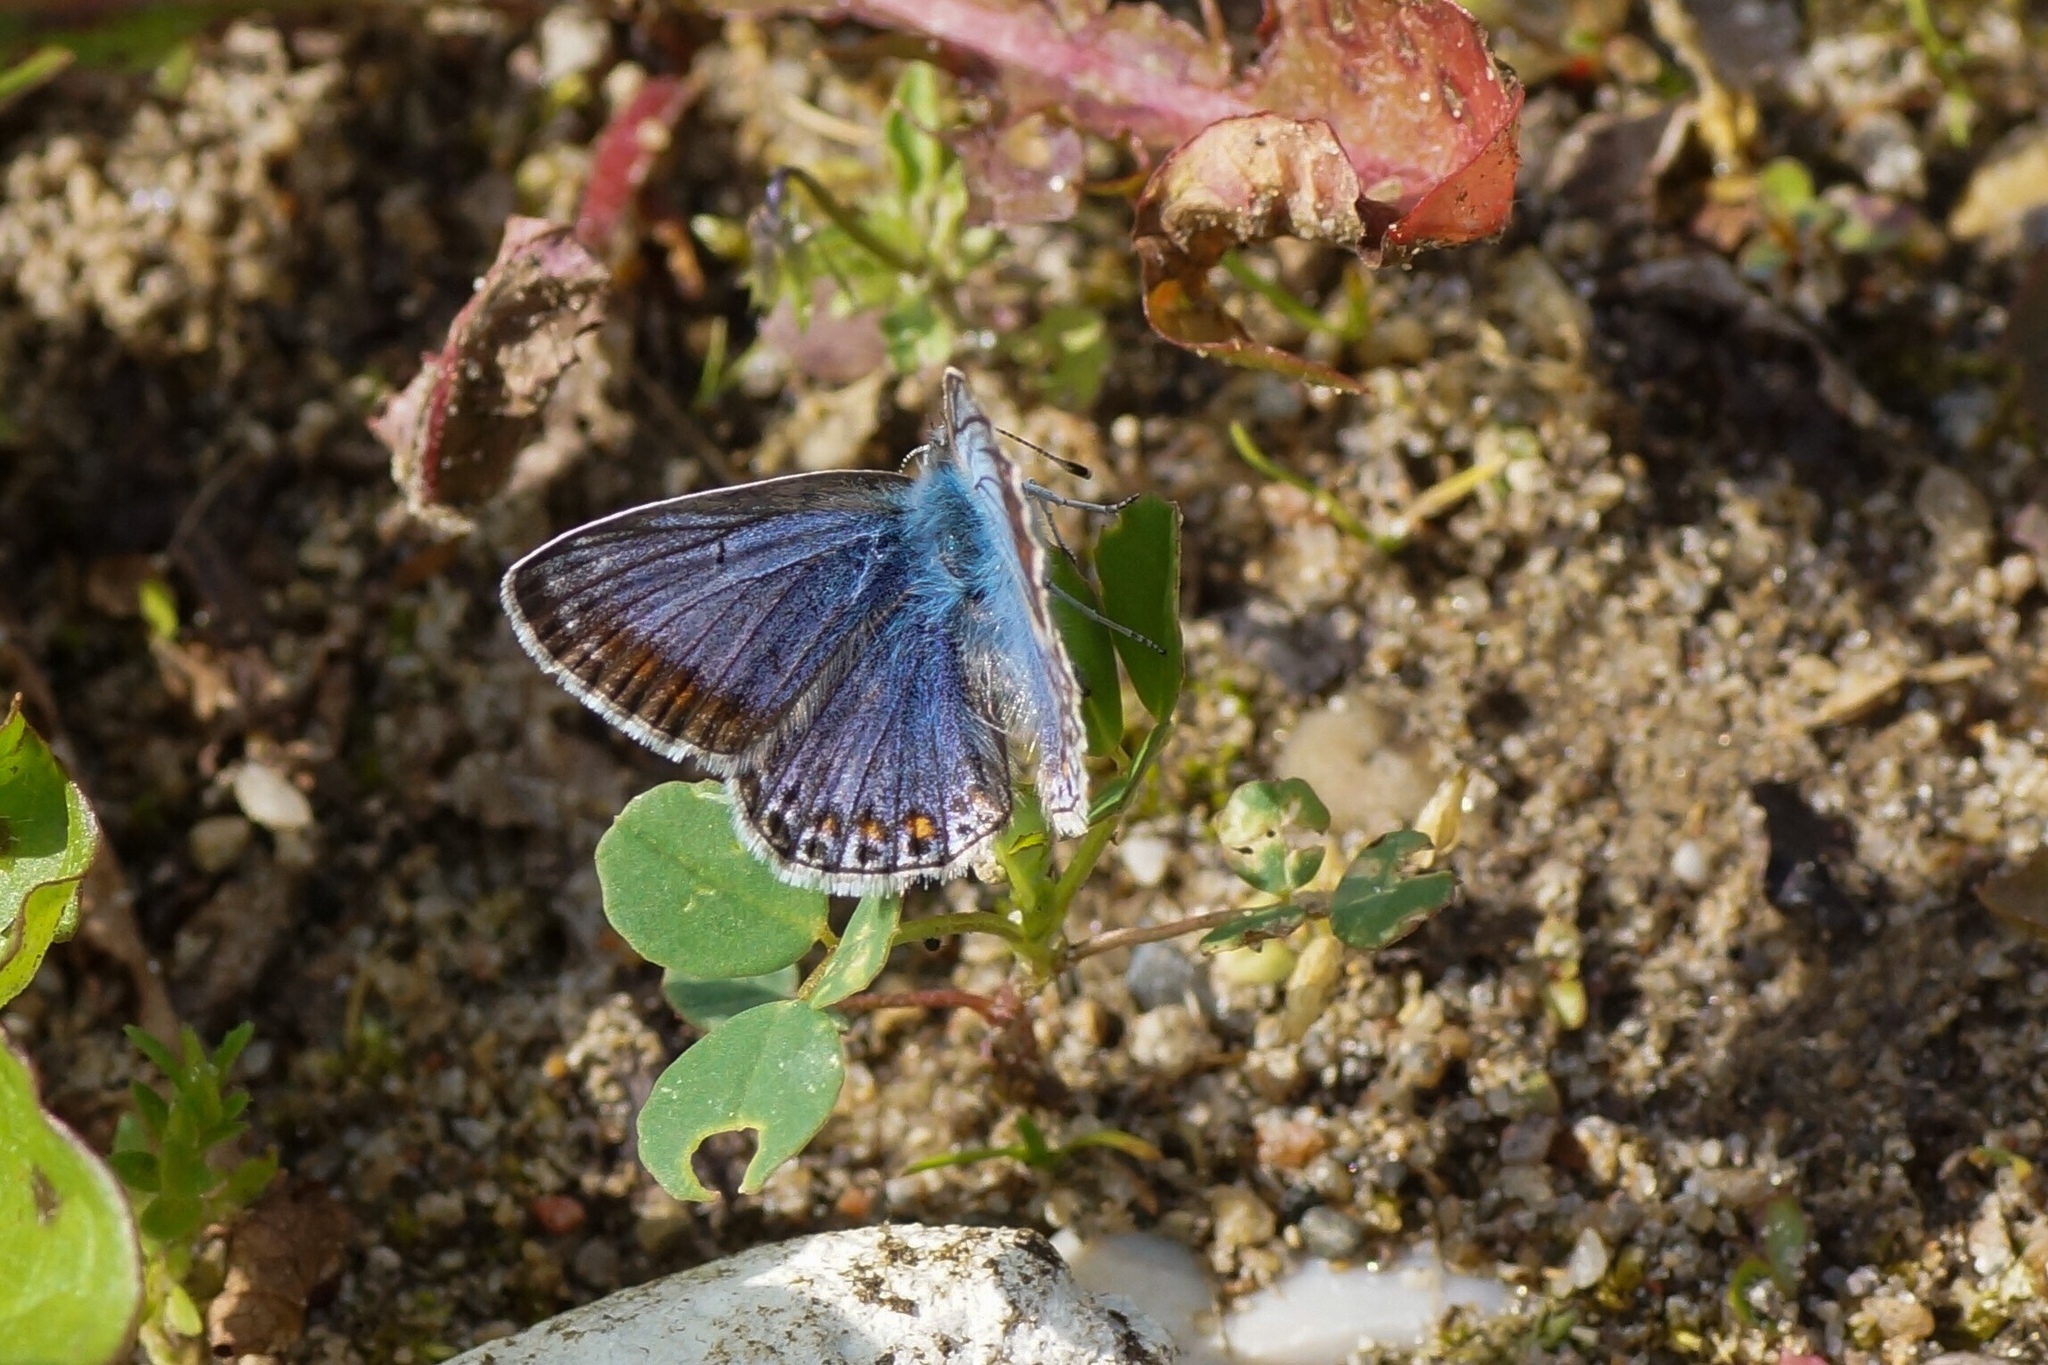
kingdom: Animalia
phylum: Arthropoda
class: Insecta
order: Lepidoptera
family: Lycaenidae
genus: Polyommatus
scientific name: Polyommatus icarus
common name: Common blue
